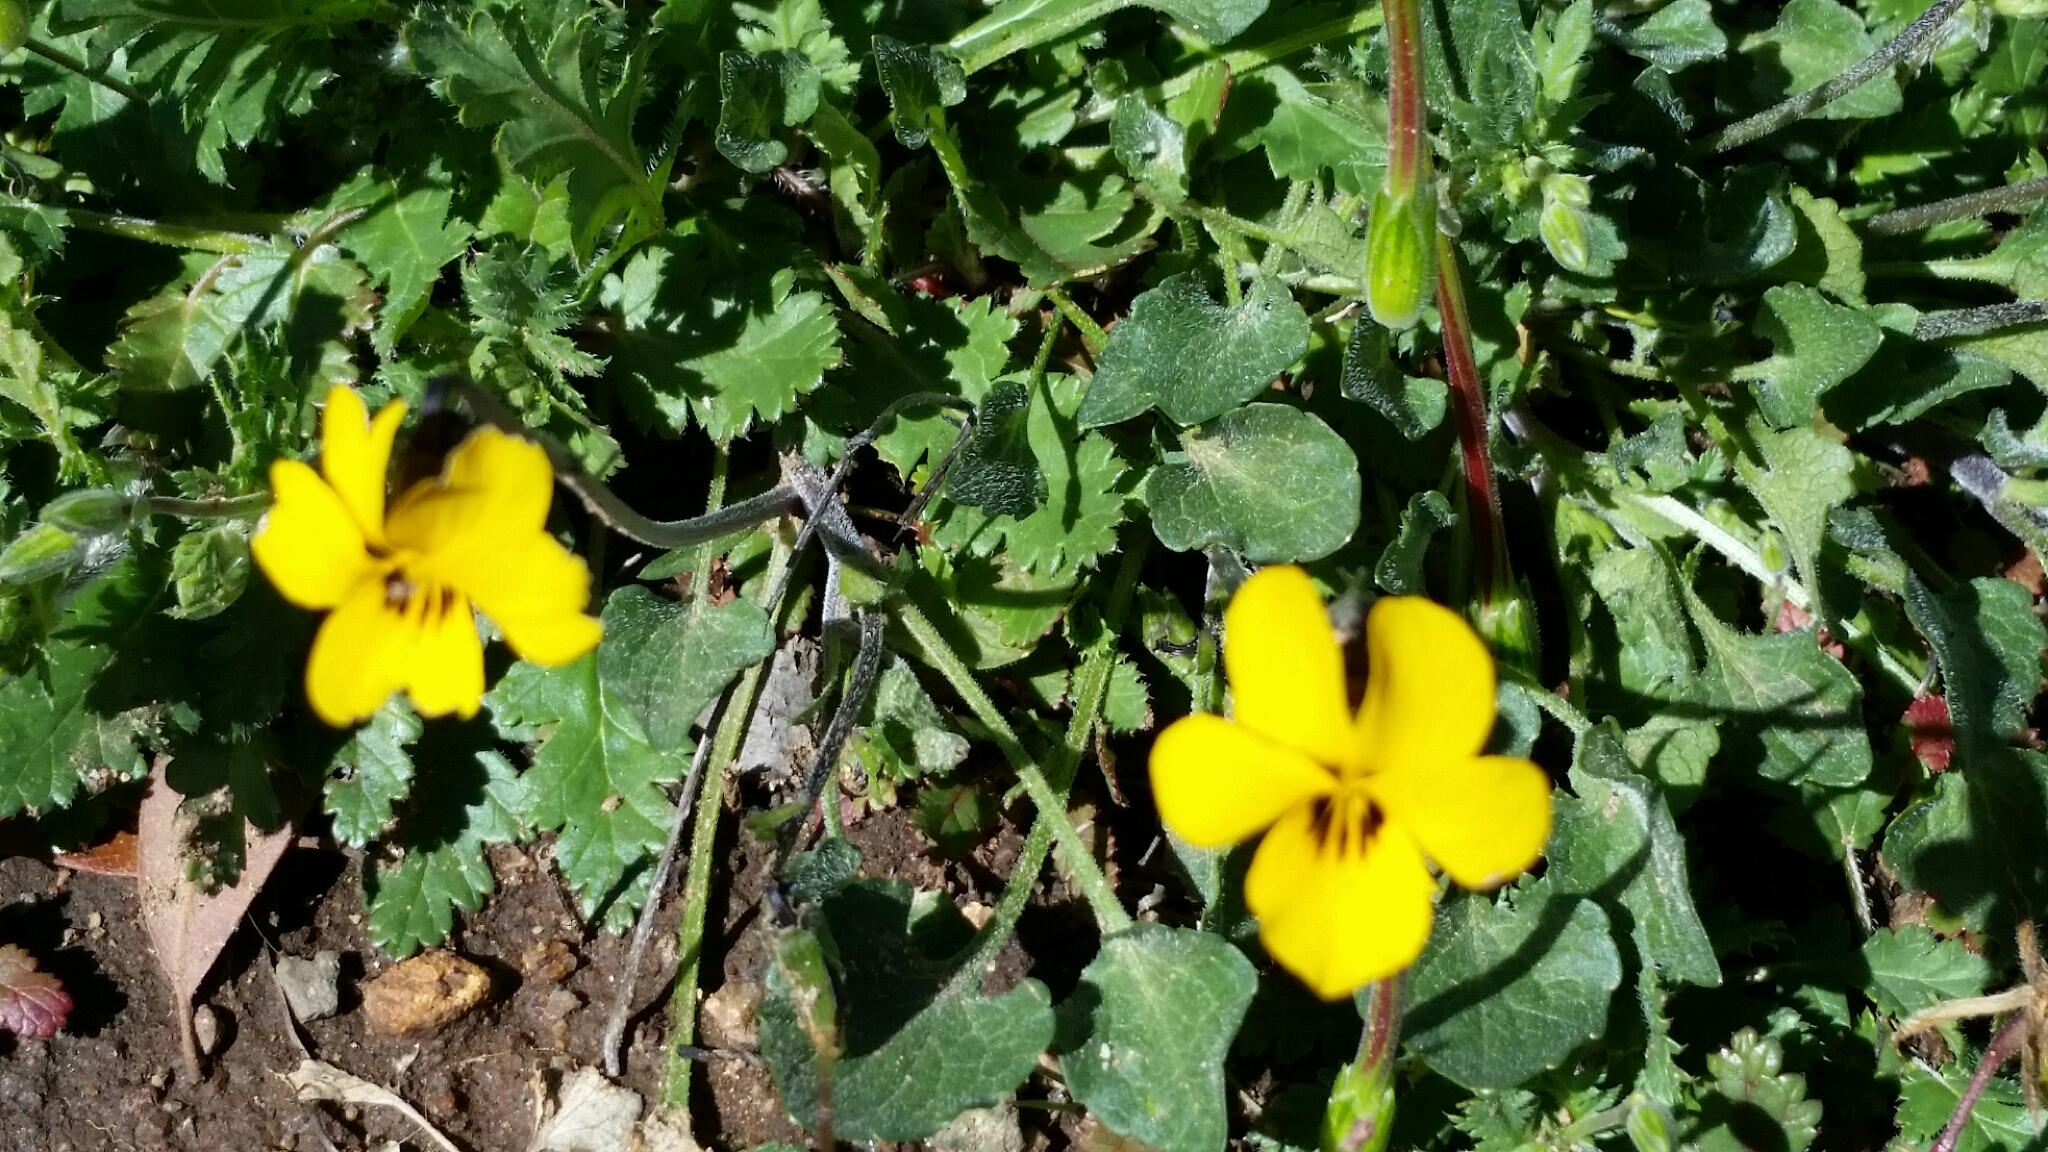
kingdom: Plantae
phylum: Tracheophyta
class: Magnoliopsida
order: Malpighiales
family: Violaceae
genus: Viola
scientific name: Viola pedunculata
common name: California golden violet
